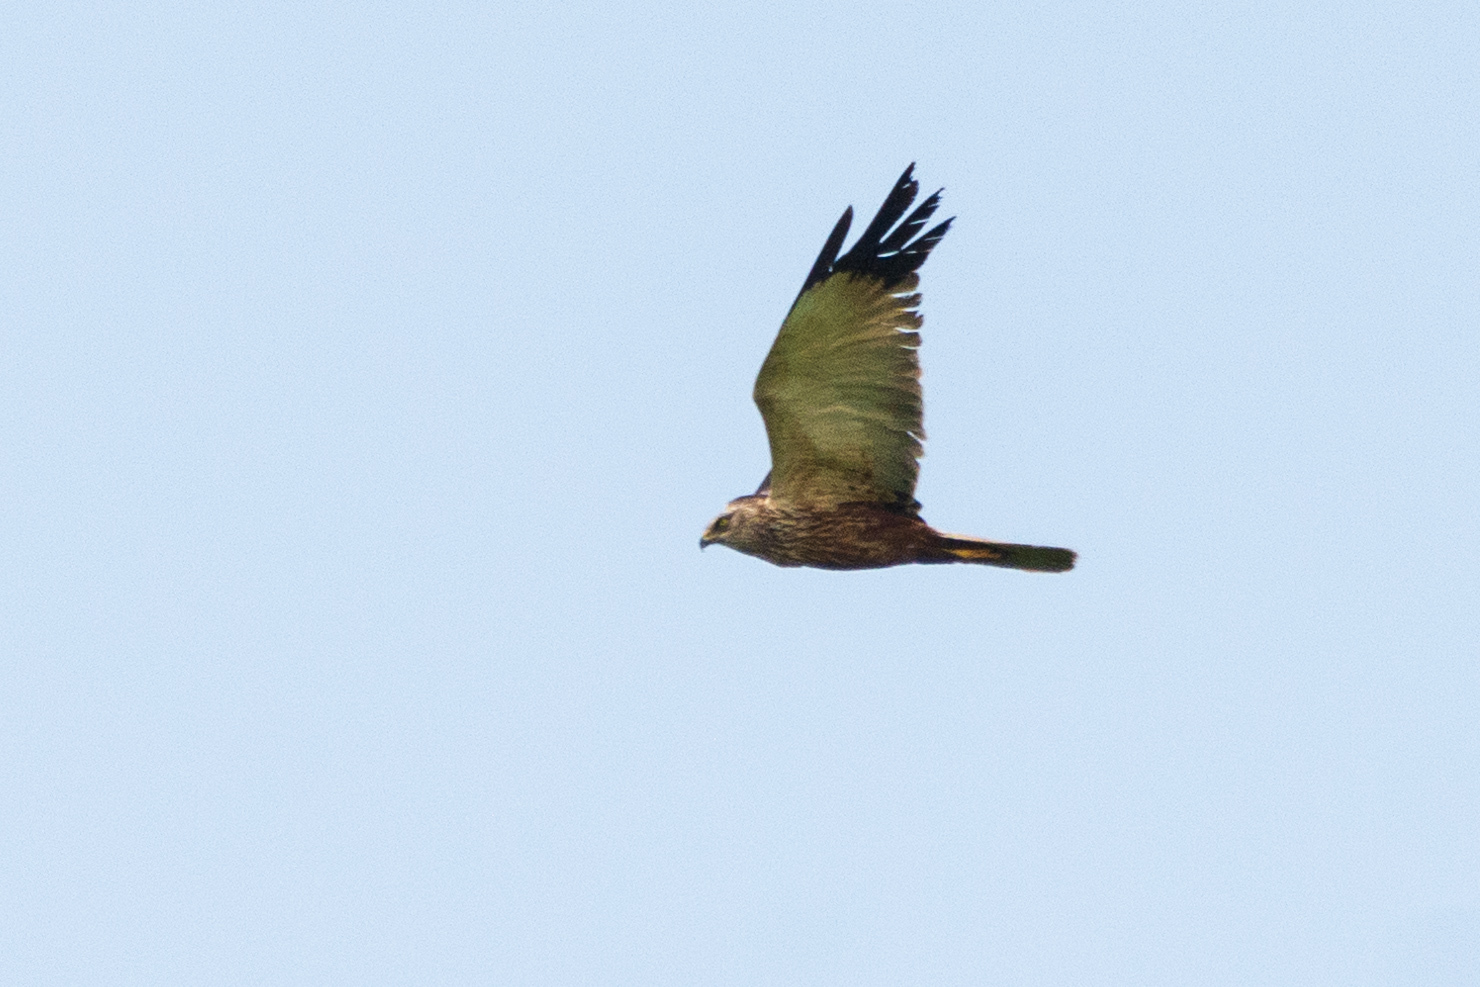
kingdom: Animalia
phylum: Chordata
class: Aves
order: Accipitriformes
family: Accipitridae
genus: Circus
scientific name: Circus aeruginosus
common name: Western marsh harrier
